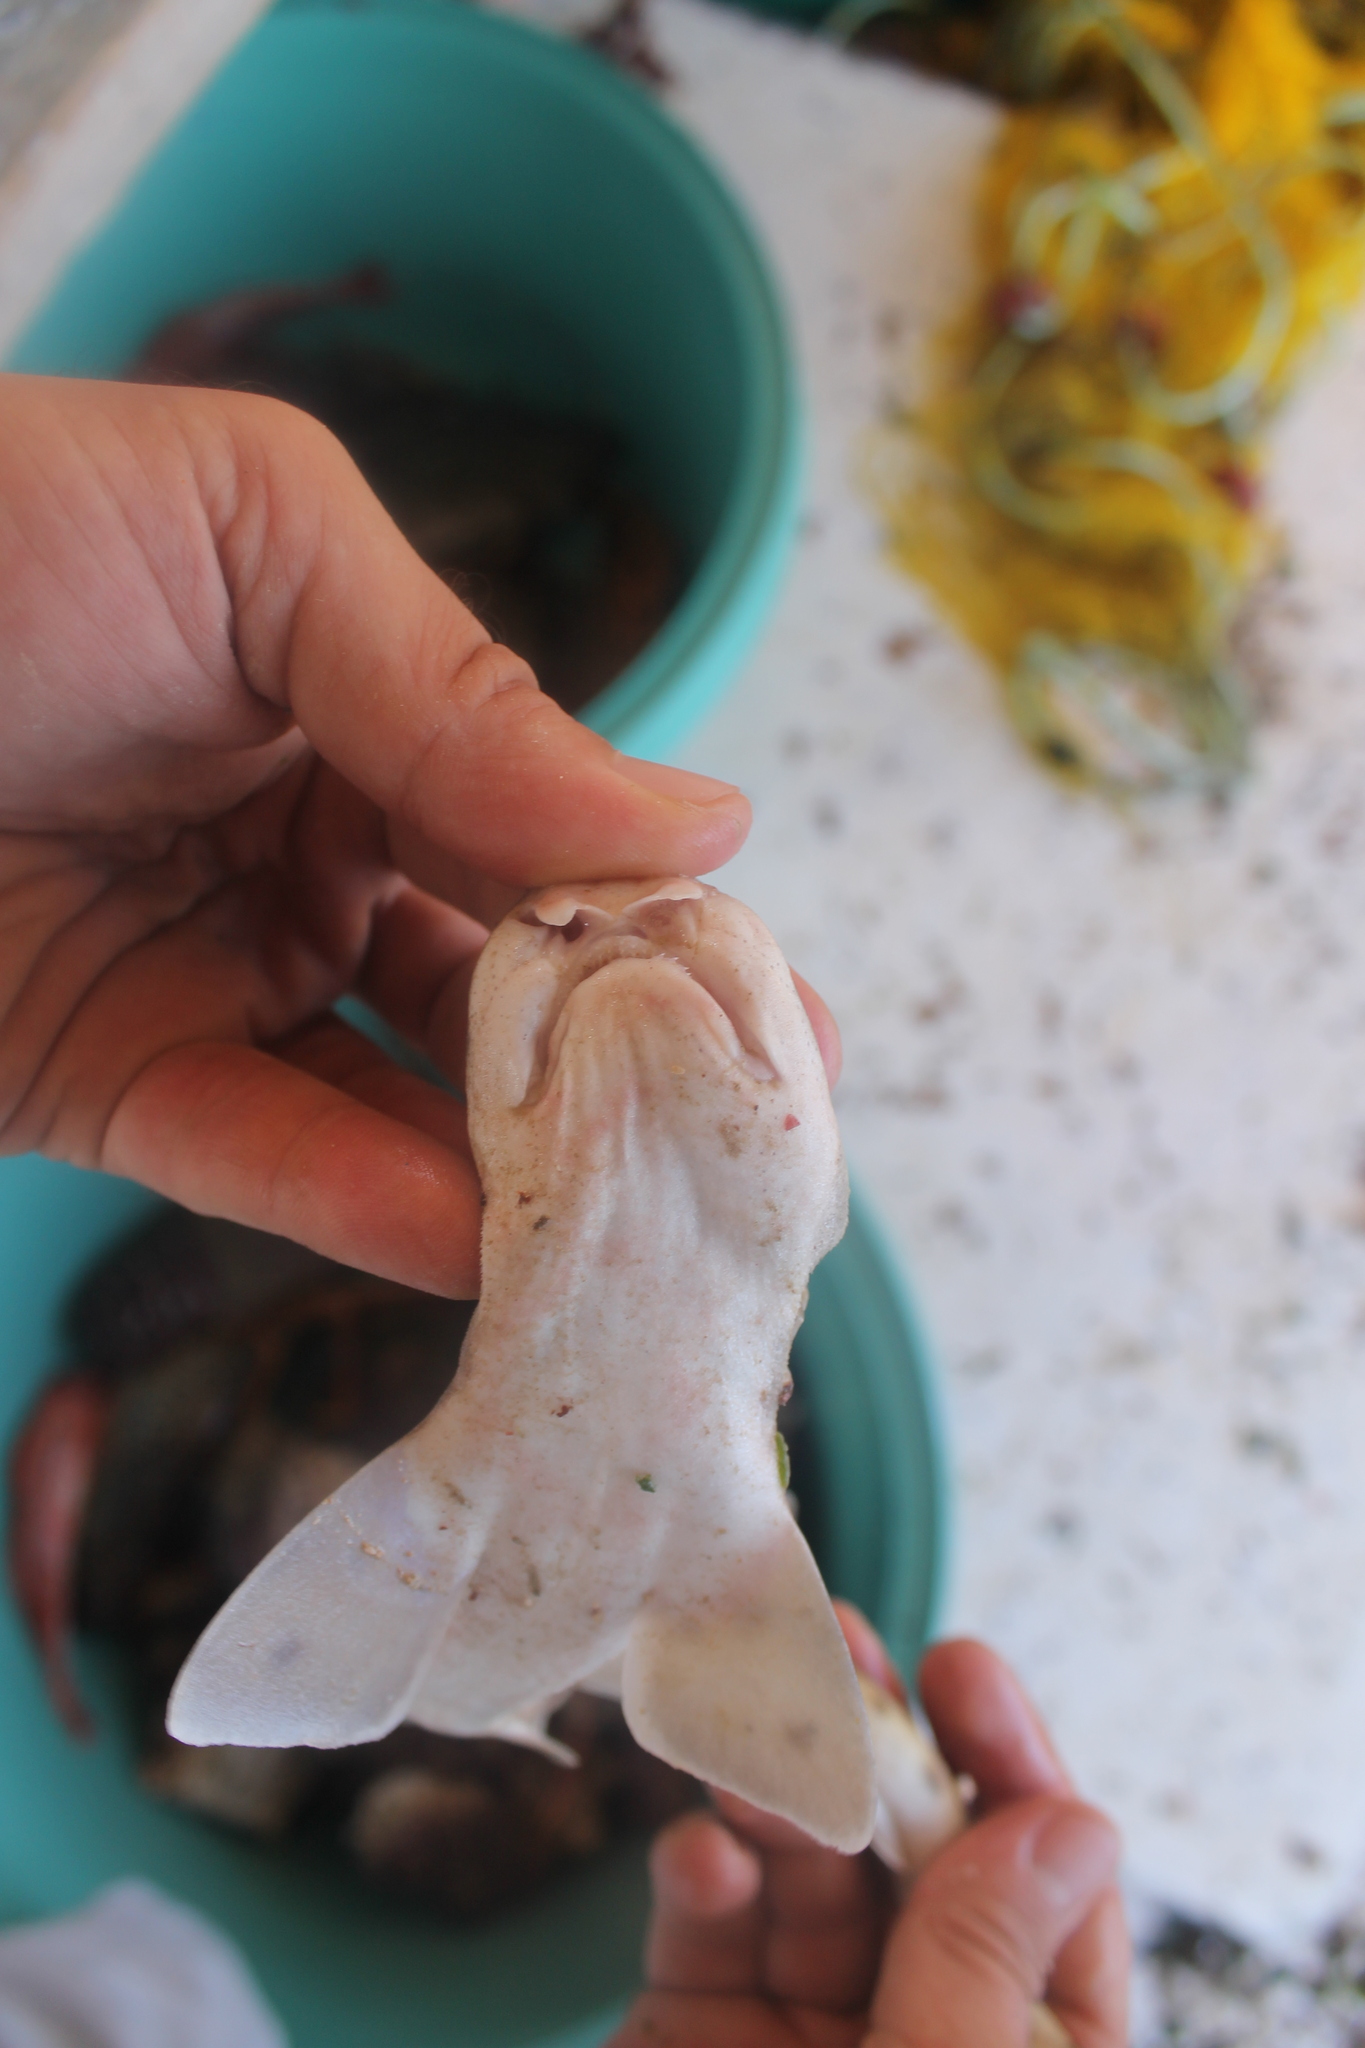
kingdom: Animalia
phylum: Chordata
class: Elasmobranchii
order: Carcharhiniformes
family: Scyliorhinidae
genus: Scyliorhinus
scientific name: Scyliorhinus canicula
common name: Lesser spotted dogfish
